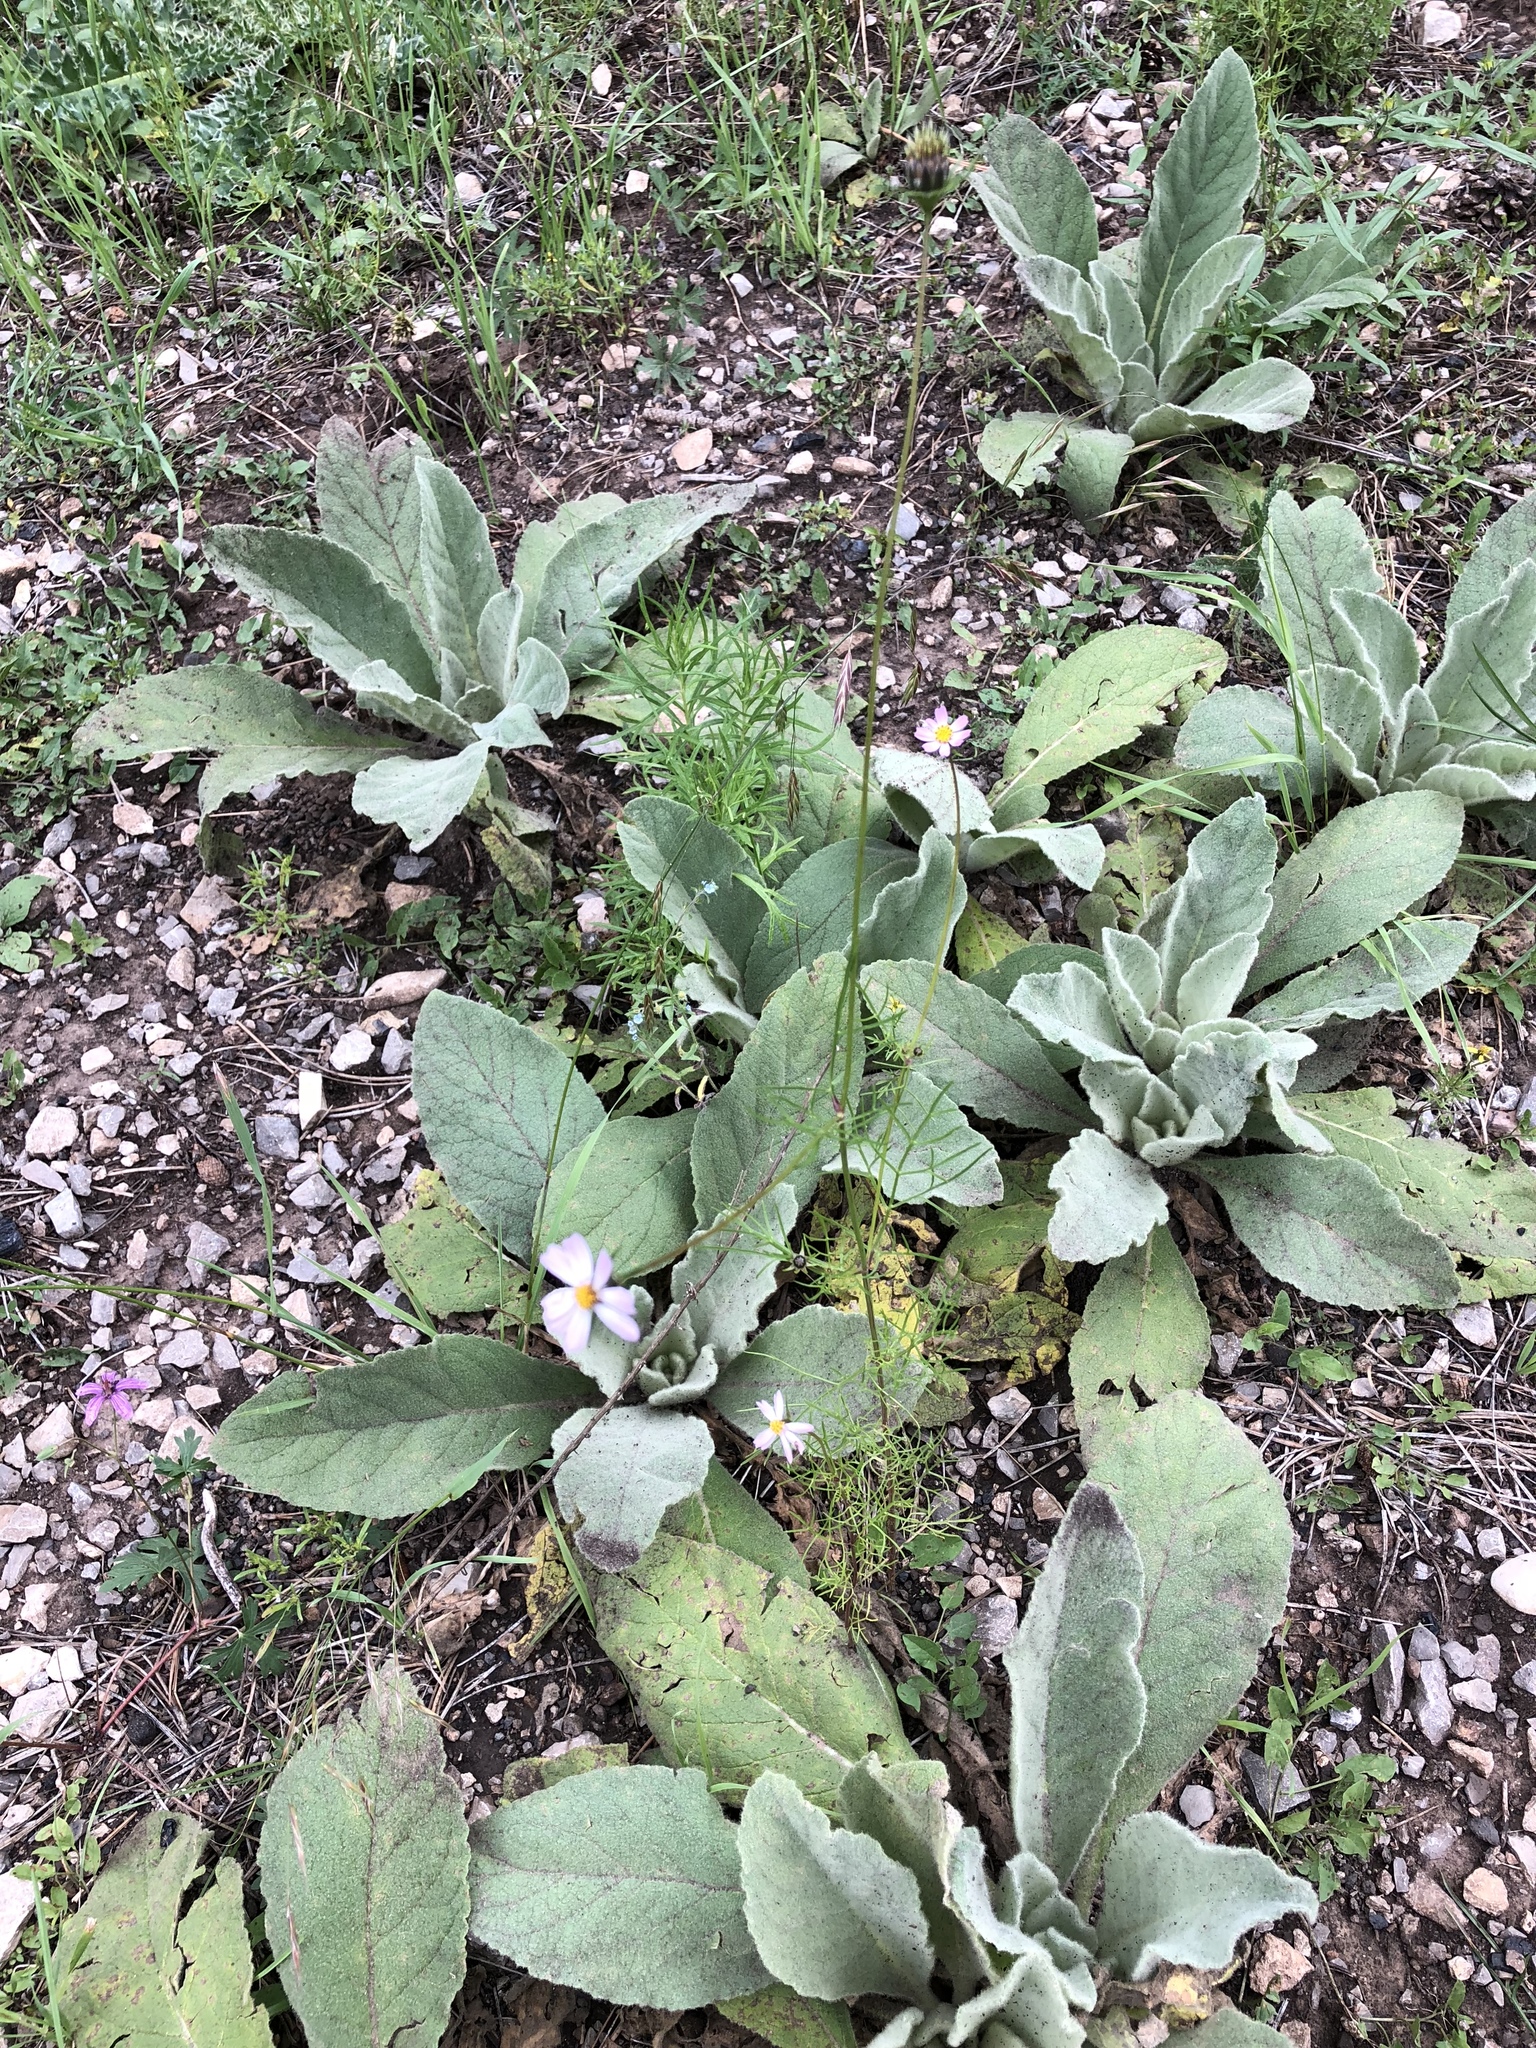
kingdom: Plantae
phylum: Tracheophyta
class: Magnoliopsida
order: Lamiales
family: Scrophulariaceae
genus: Verbascum
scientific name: Verbascum thapsus
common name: Common mullein
